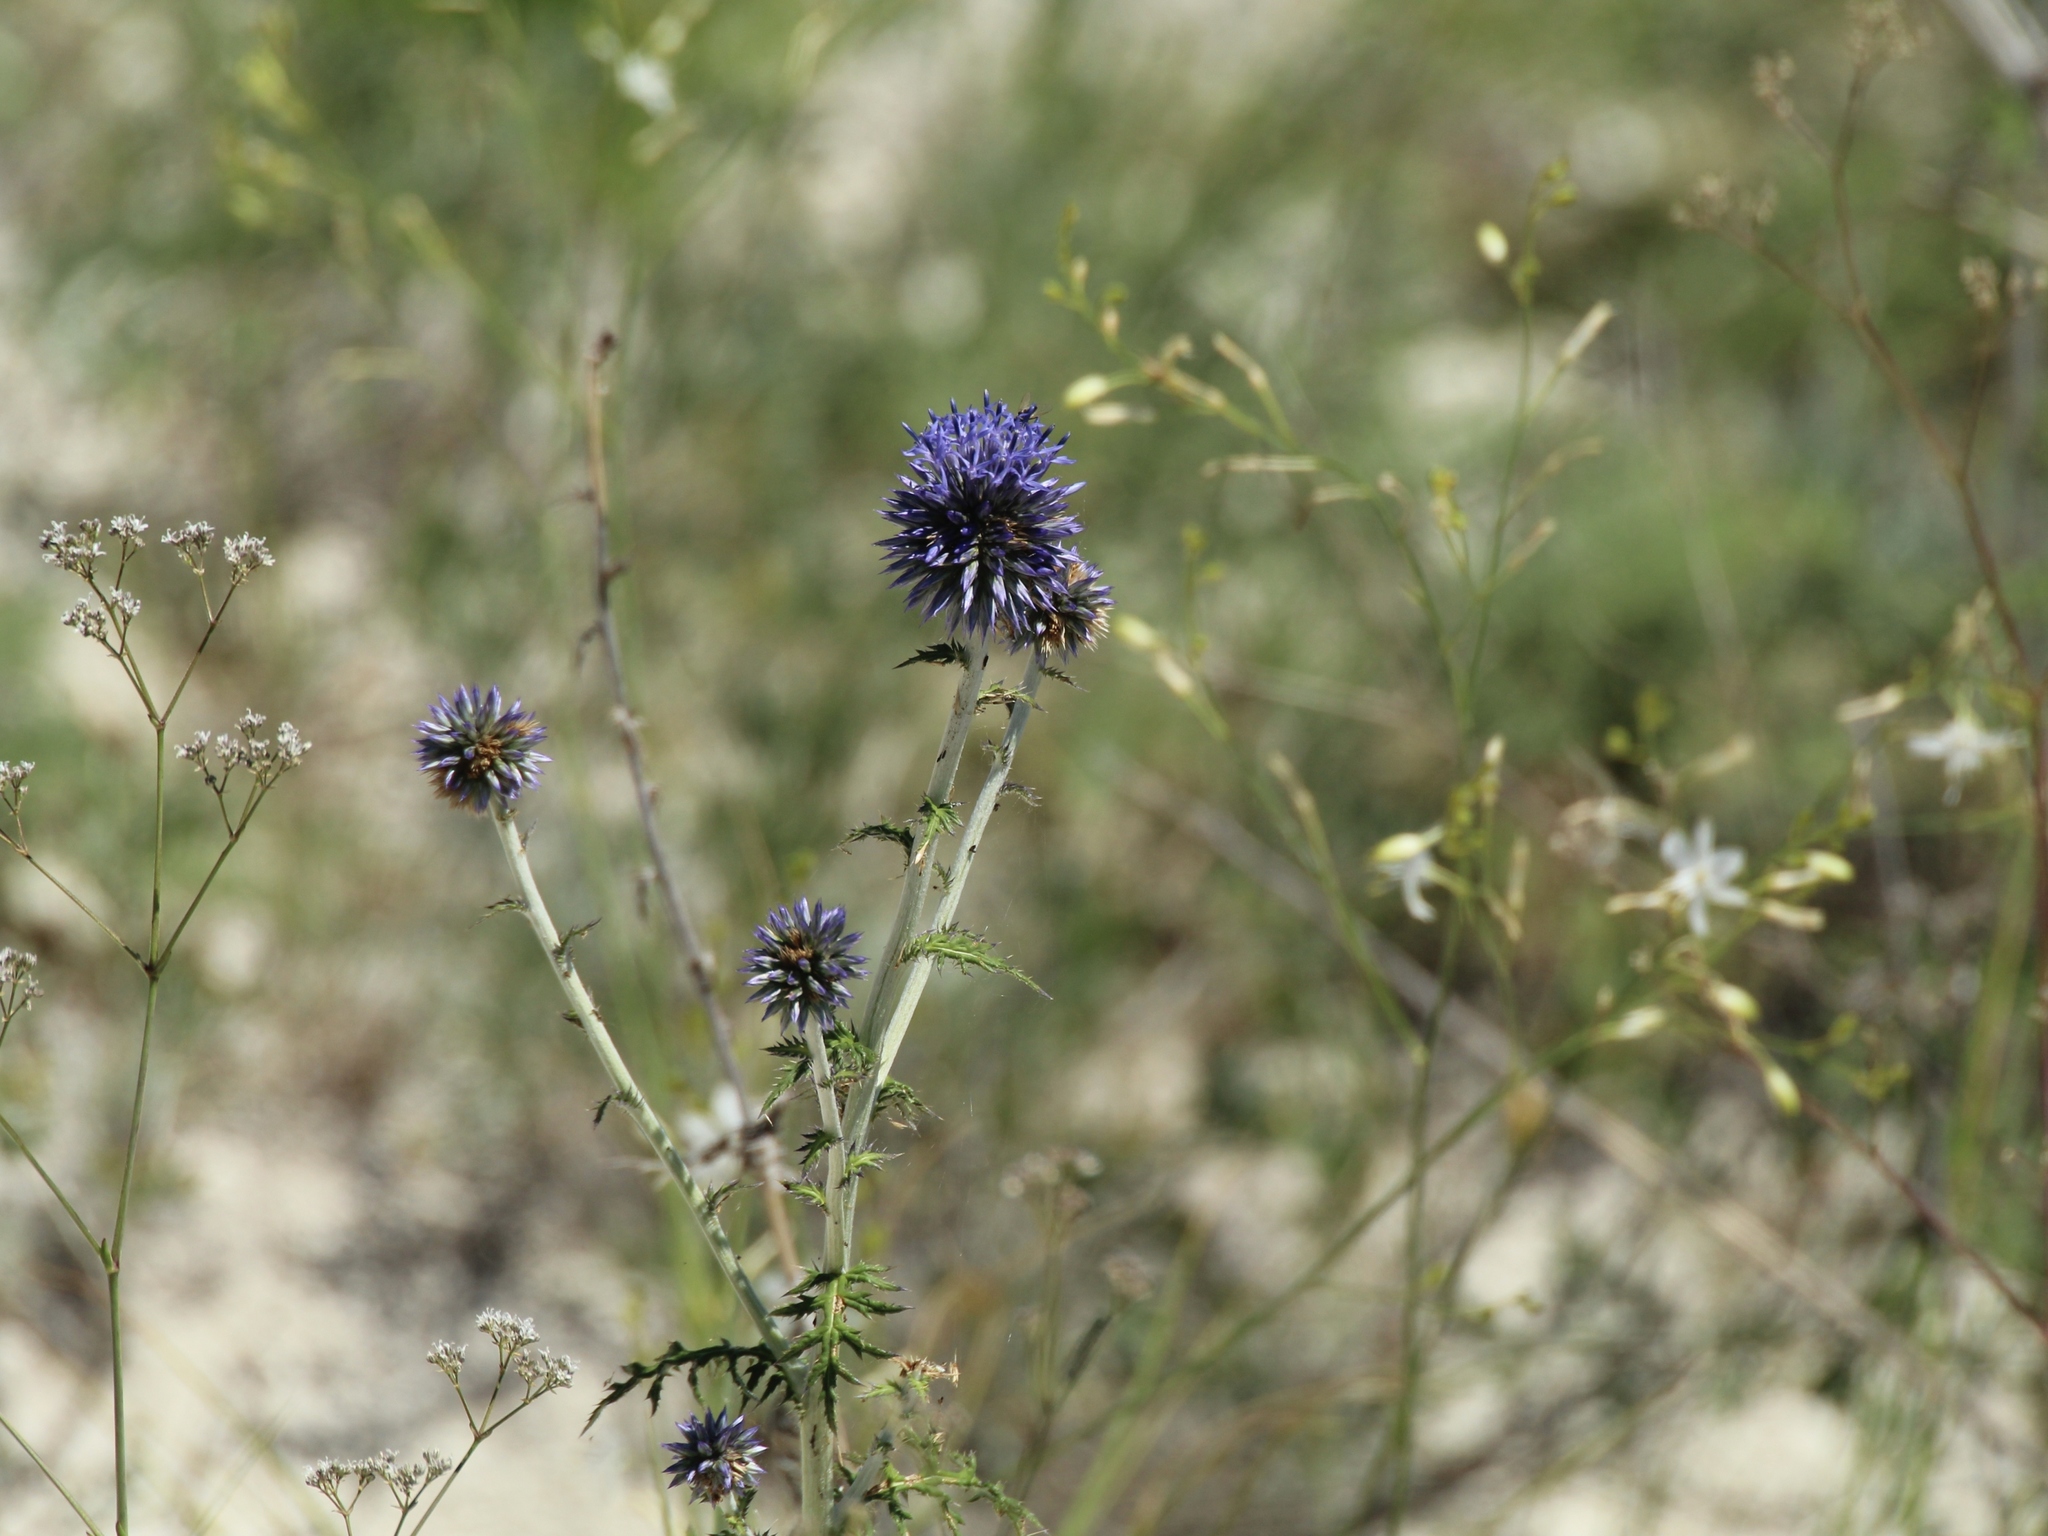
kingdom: Plantae
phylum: Tracheophyta
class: Magnoliopsida
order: Asterales
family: Asteraceae
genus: Echinops
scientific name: Echinops ritro
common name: Globe thistle
